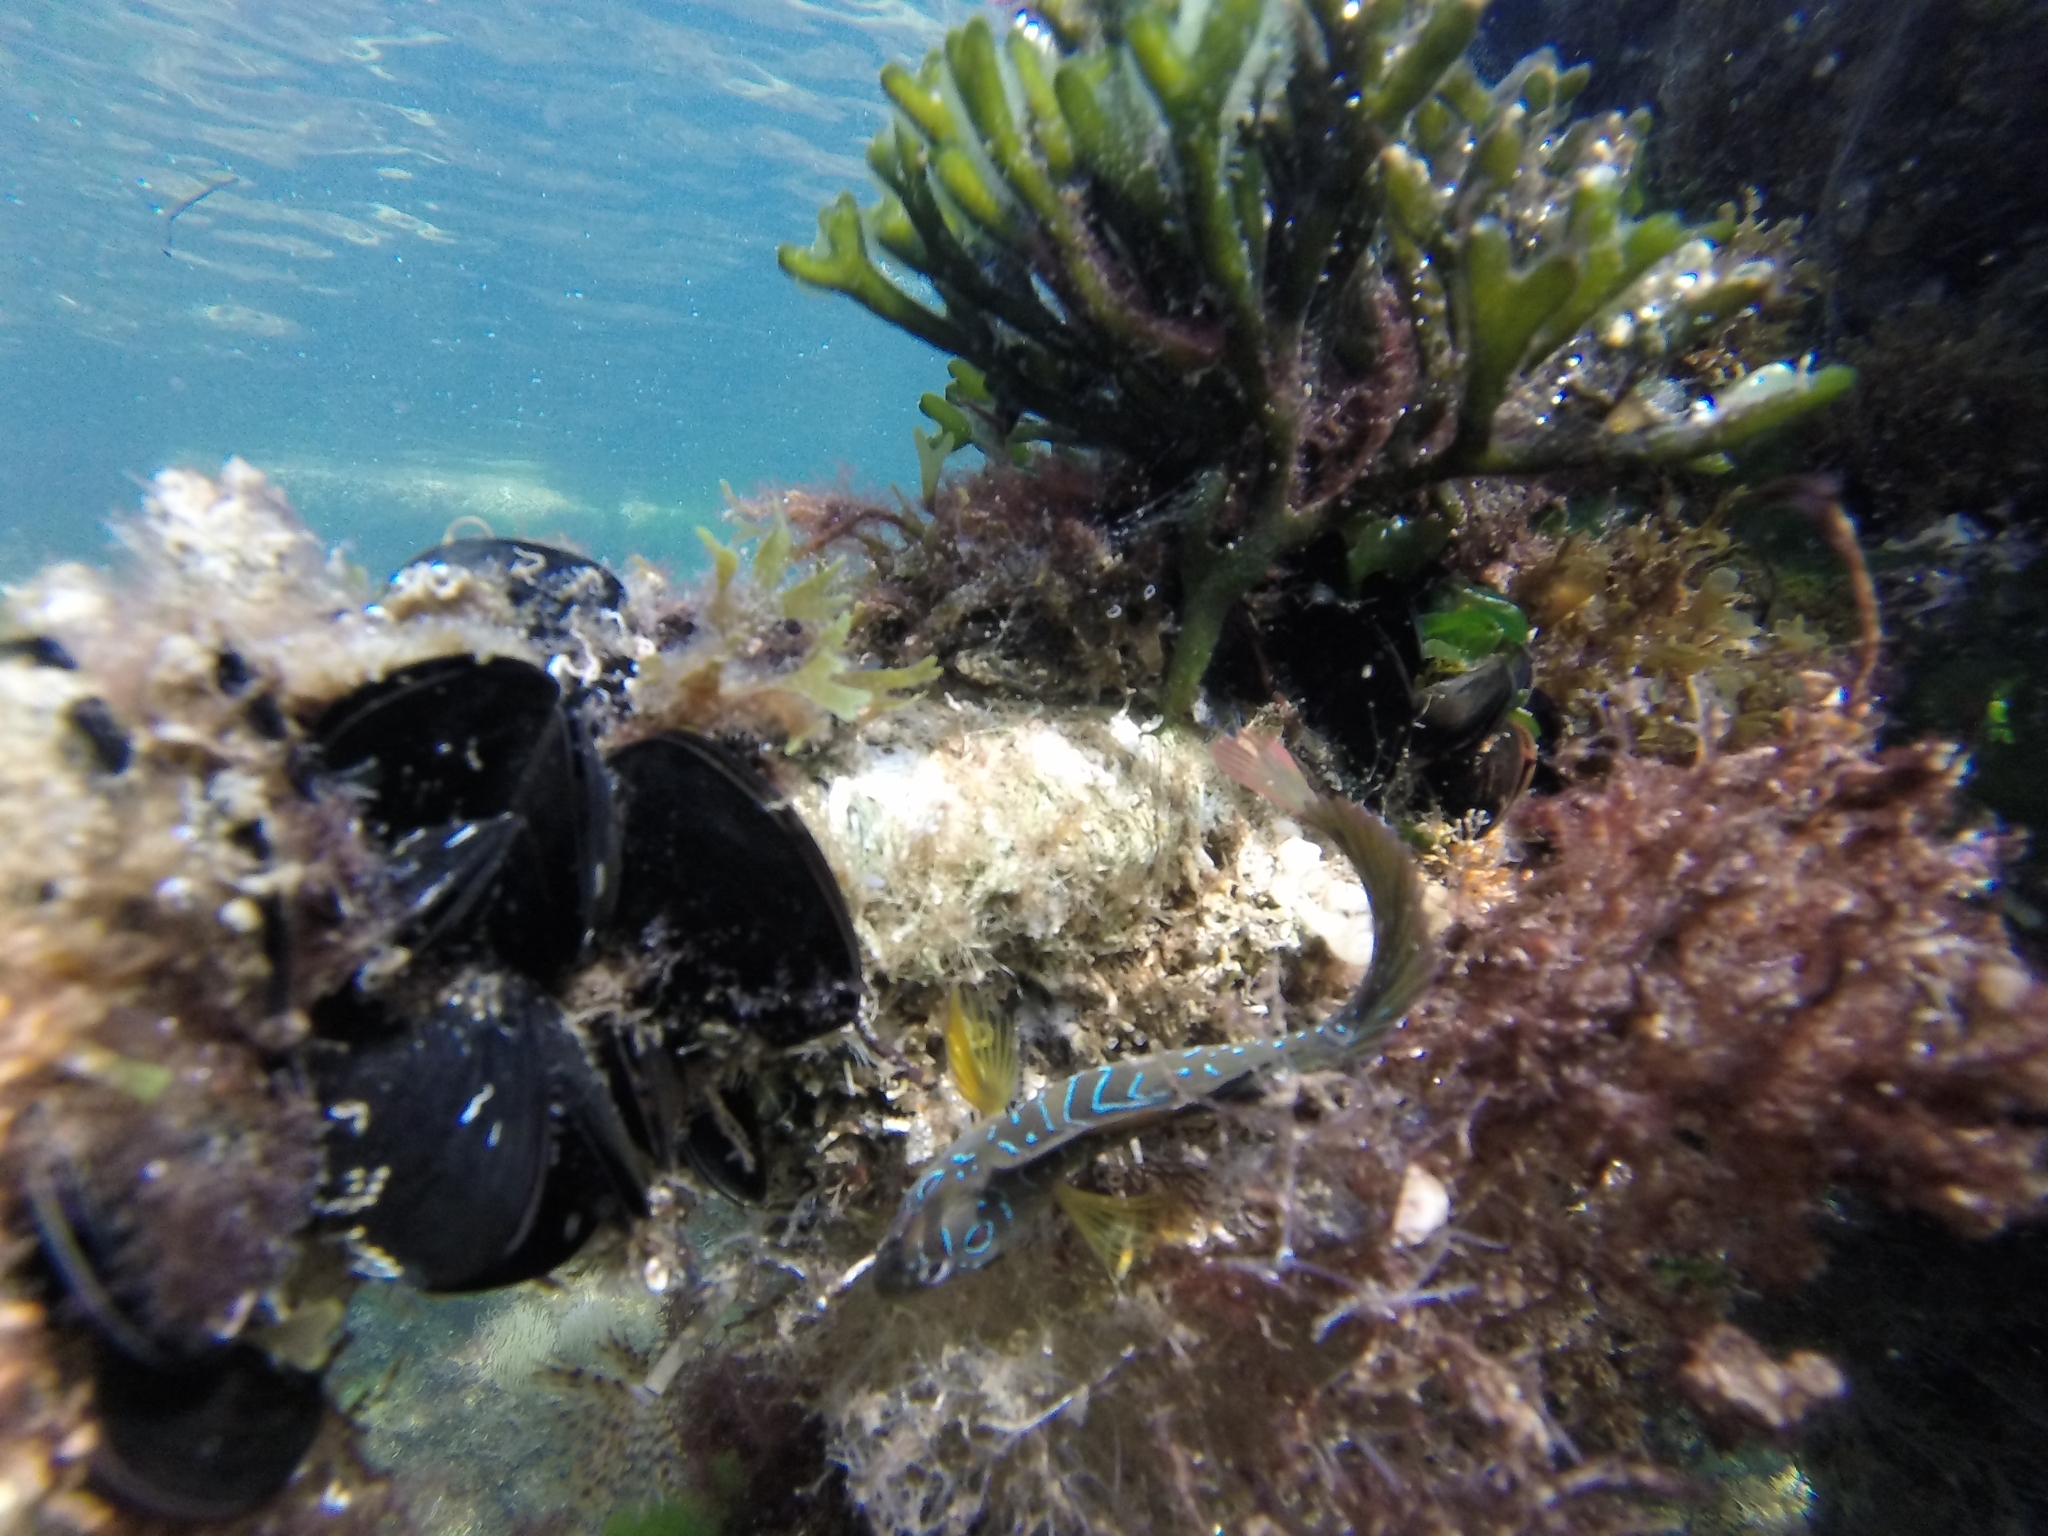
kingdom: Animalia
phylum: Chordata
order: Perciformes
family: Blenniidae
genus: Salaria
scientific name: Salaria pavo
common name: Peacock blenny
